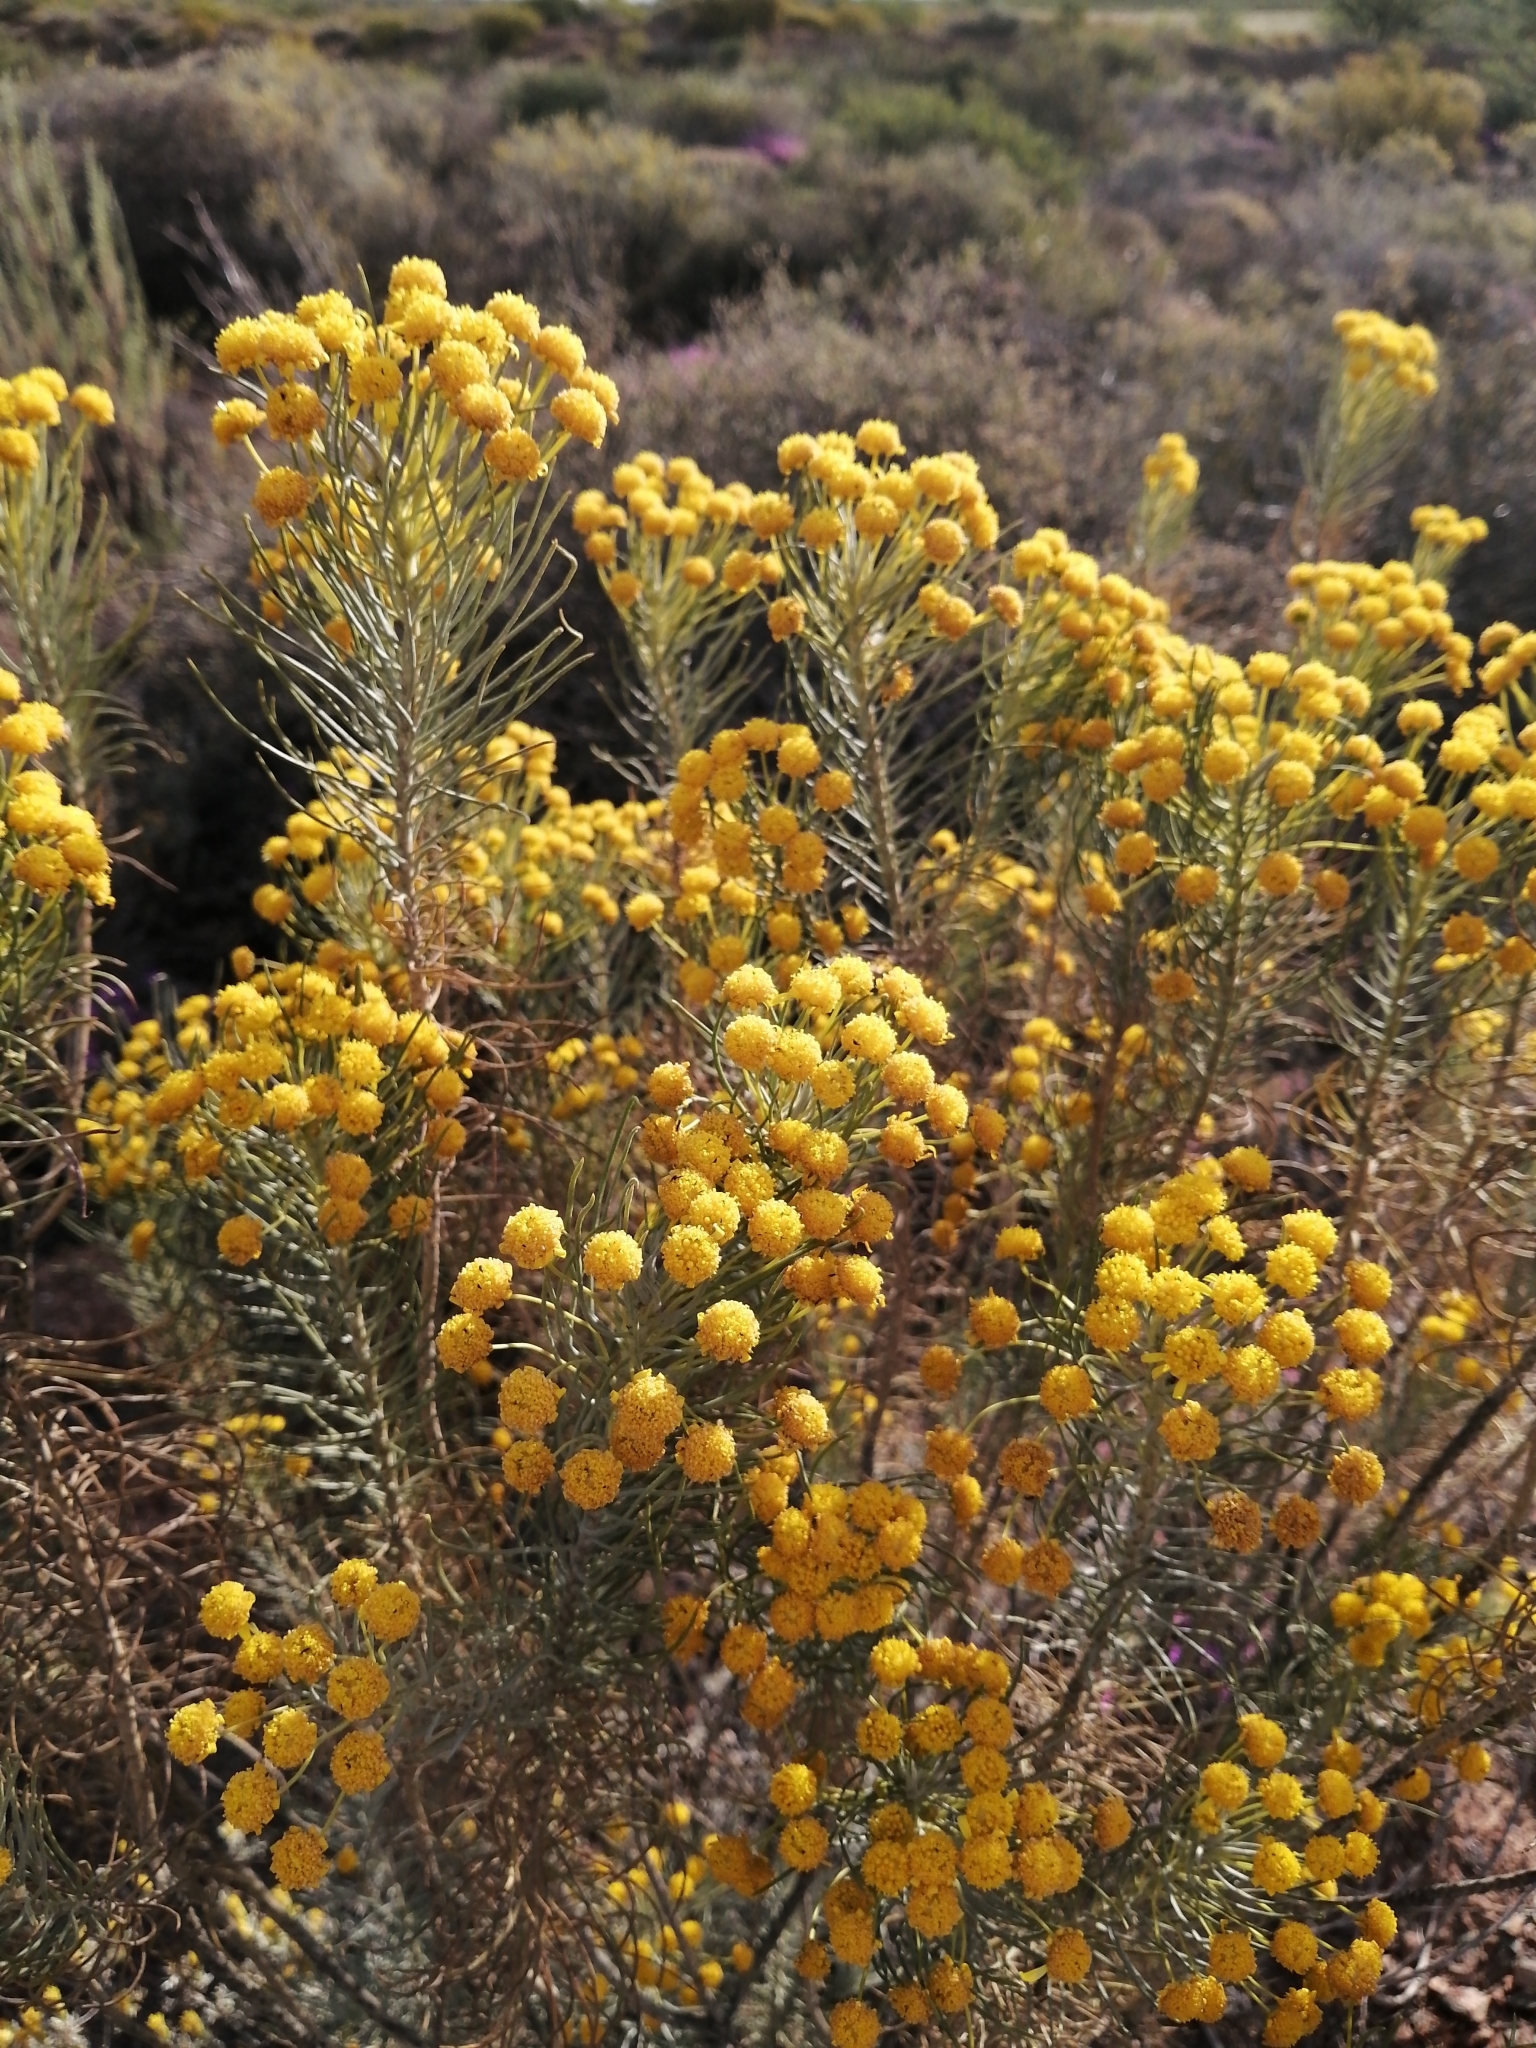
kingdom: Plantae
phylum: Tracheophyta
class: Magnoliopsida
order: Asterales
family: Asteraceae
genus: Euryops
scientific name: Euryops tenuissimus
